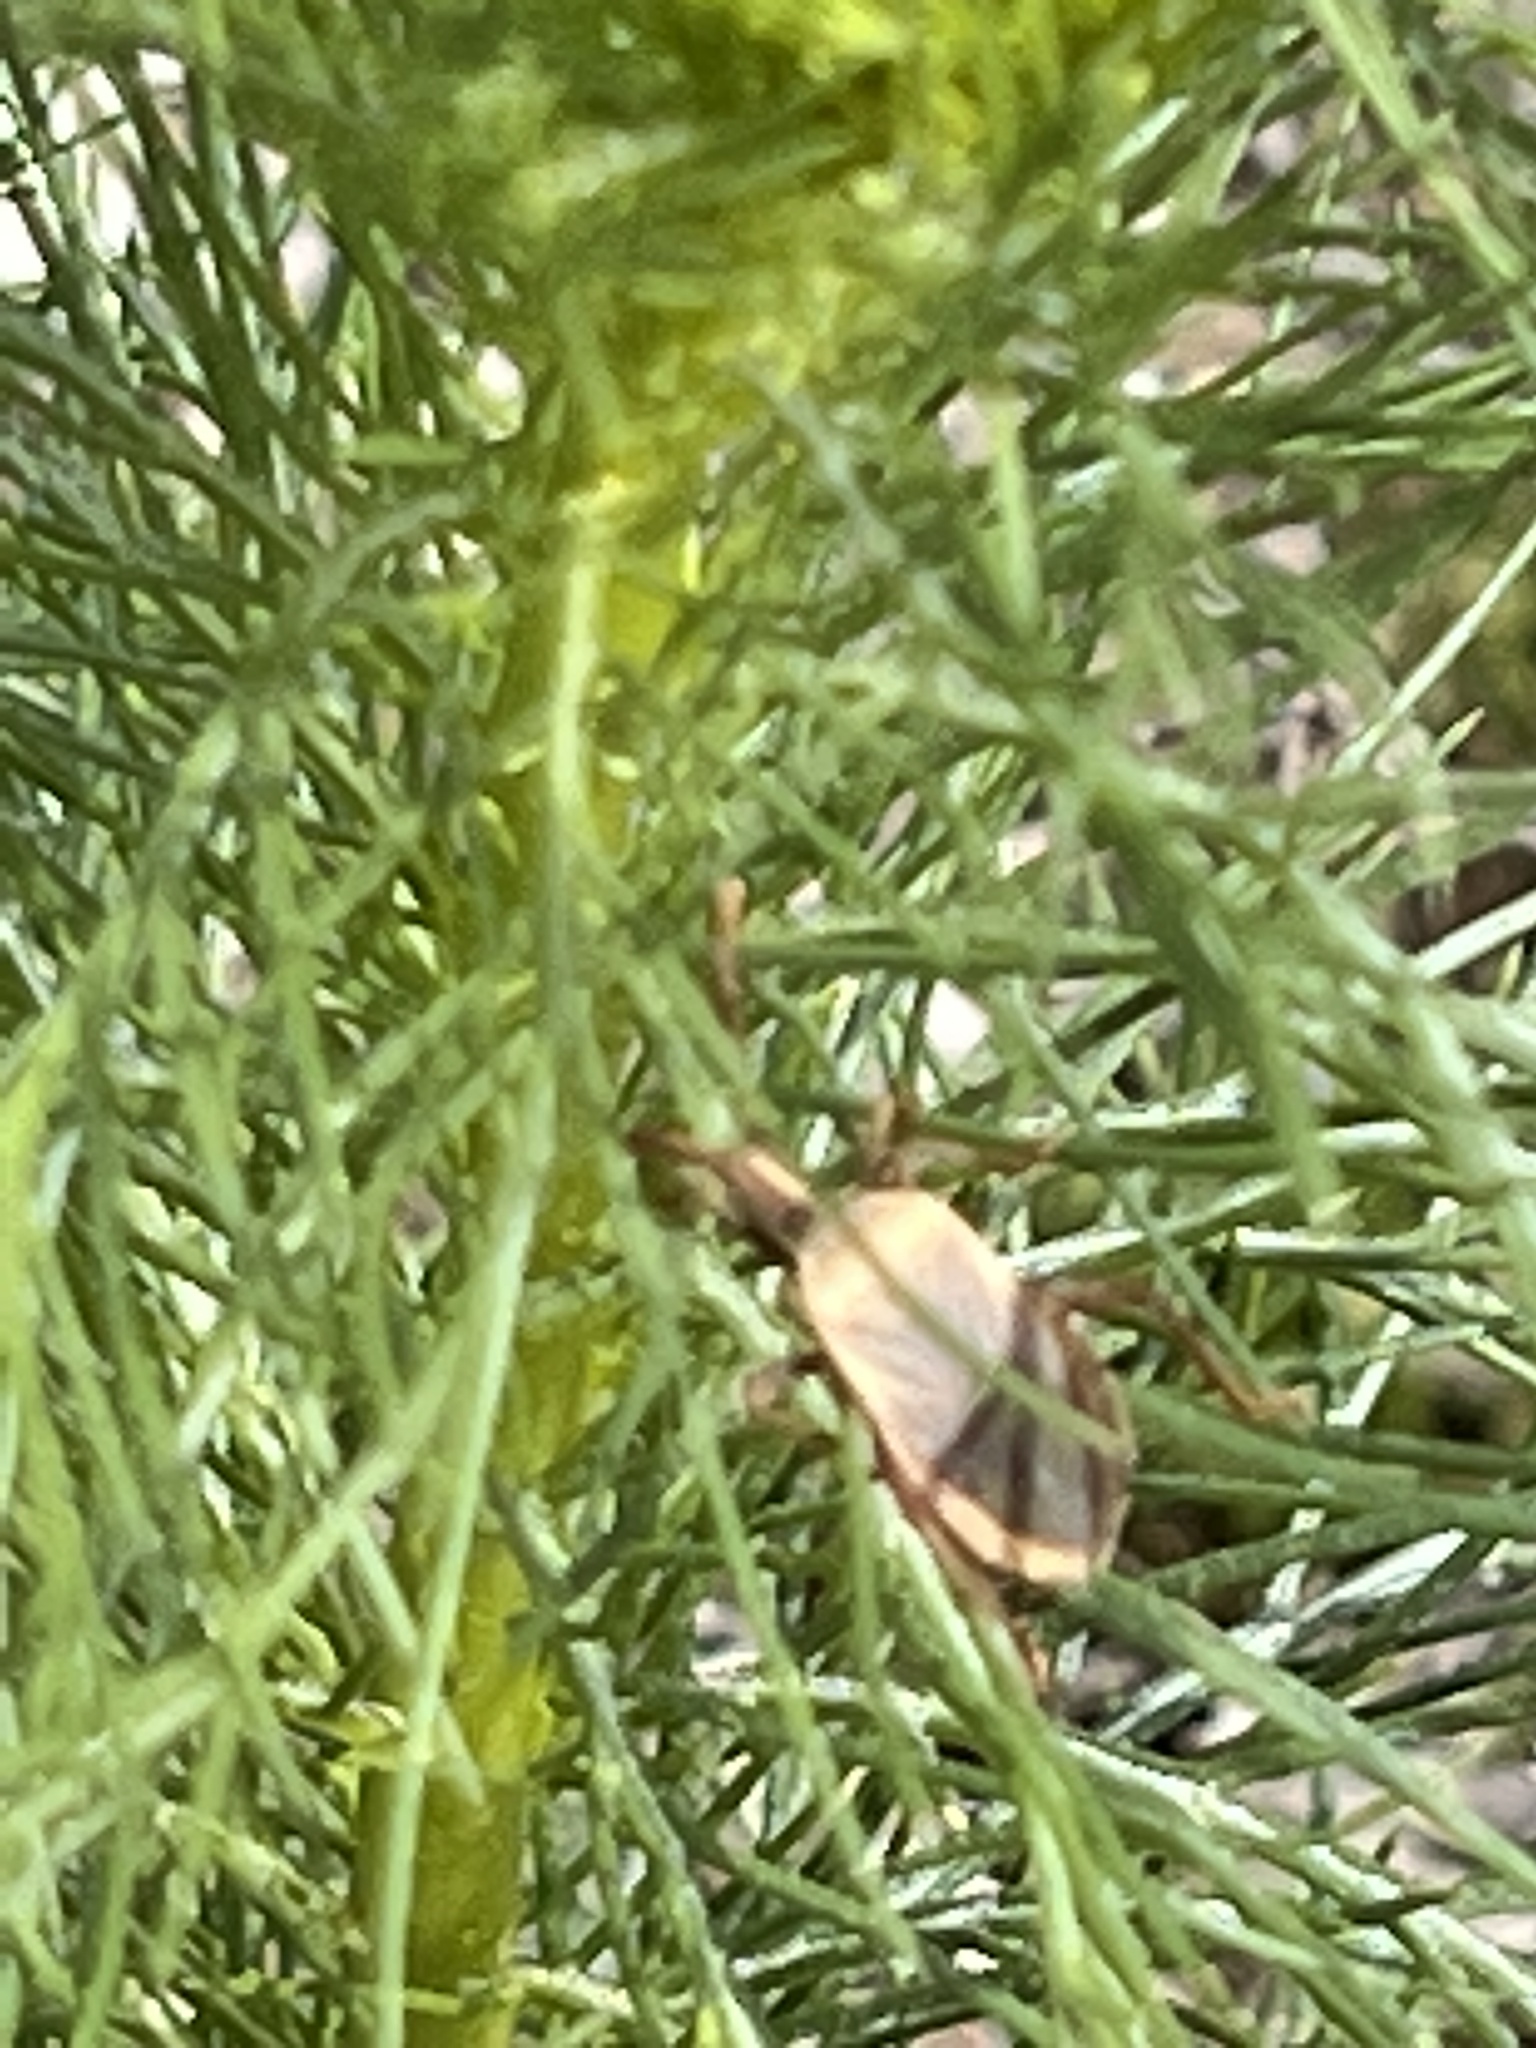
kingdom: Animalia
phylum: Arthropoda
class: Insecta
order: Hemiptera
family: Coreidae
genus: Chelinidea
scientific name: Chelinidea vittiger
